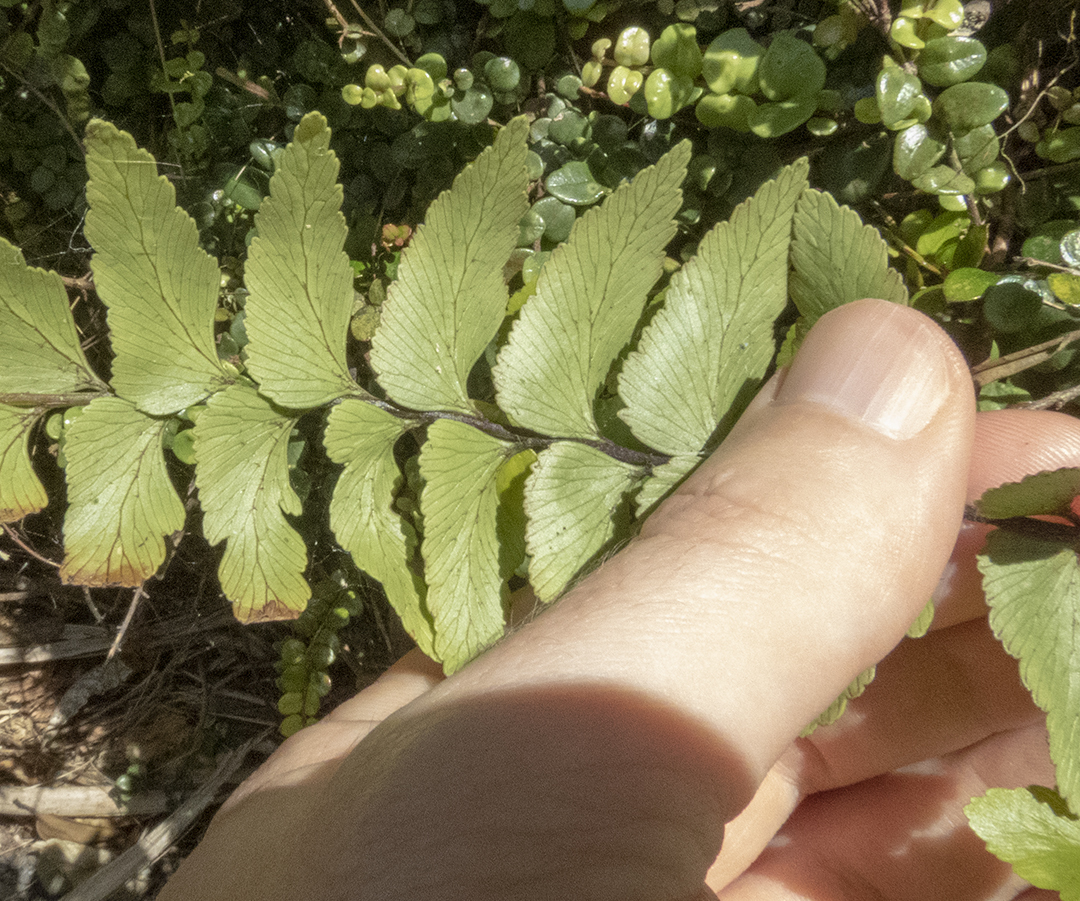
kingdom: Plantae
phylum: Tracheophyta
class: Polypodiopsida
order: Polypodiales
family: Aspleniaceae
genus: Asplenium
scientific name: Asplenium polyodon
